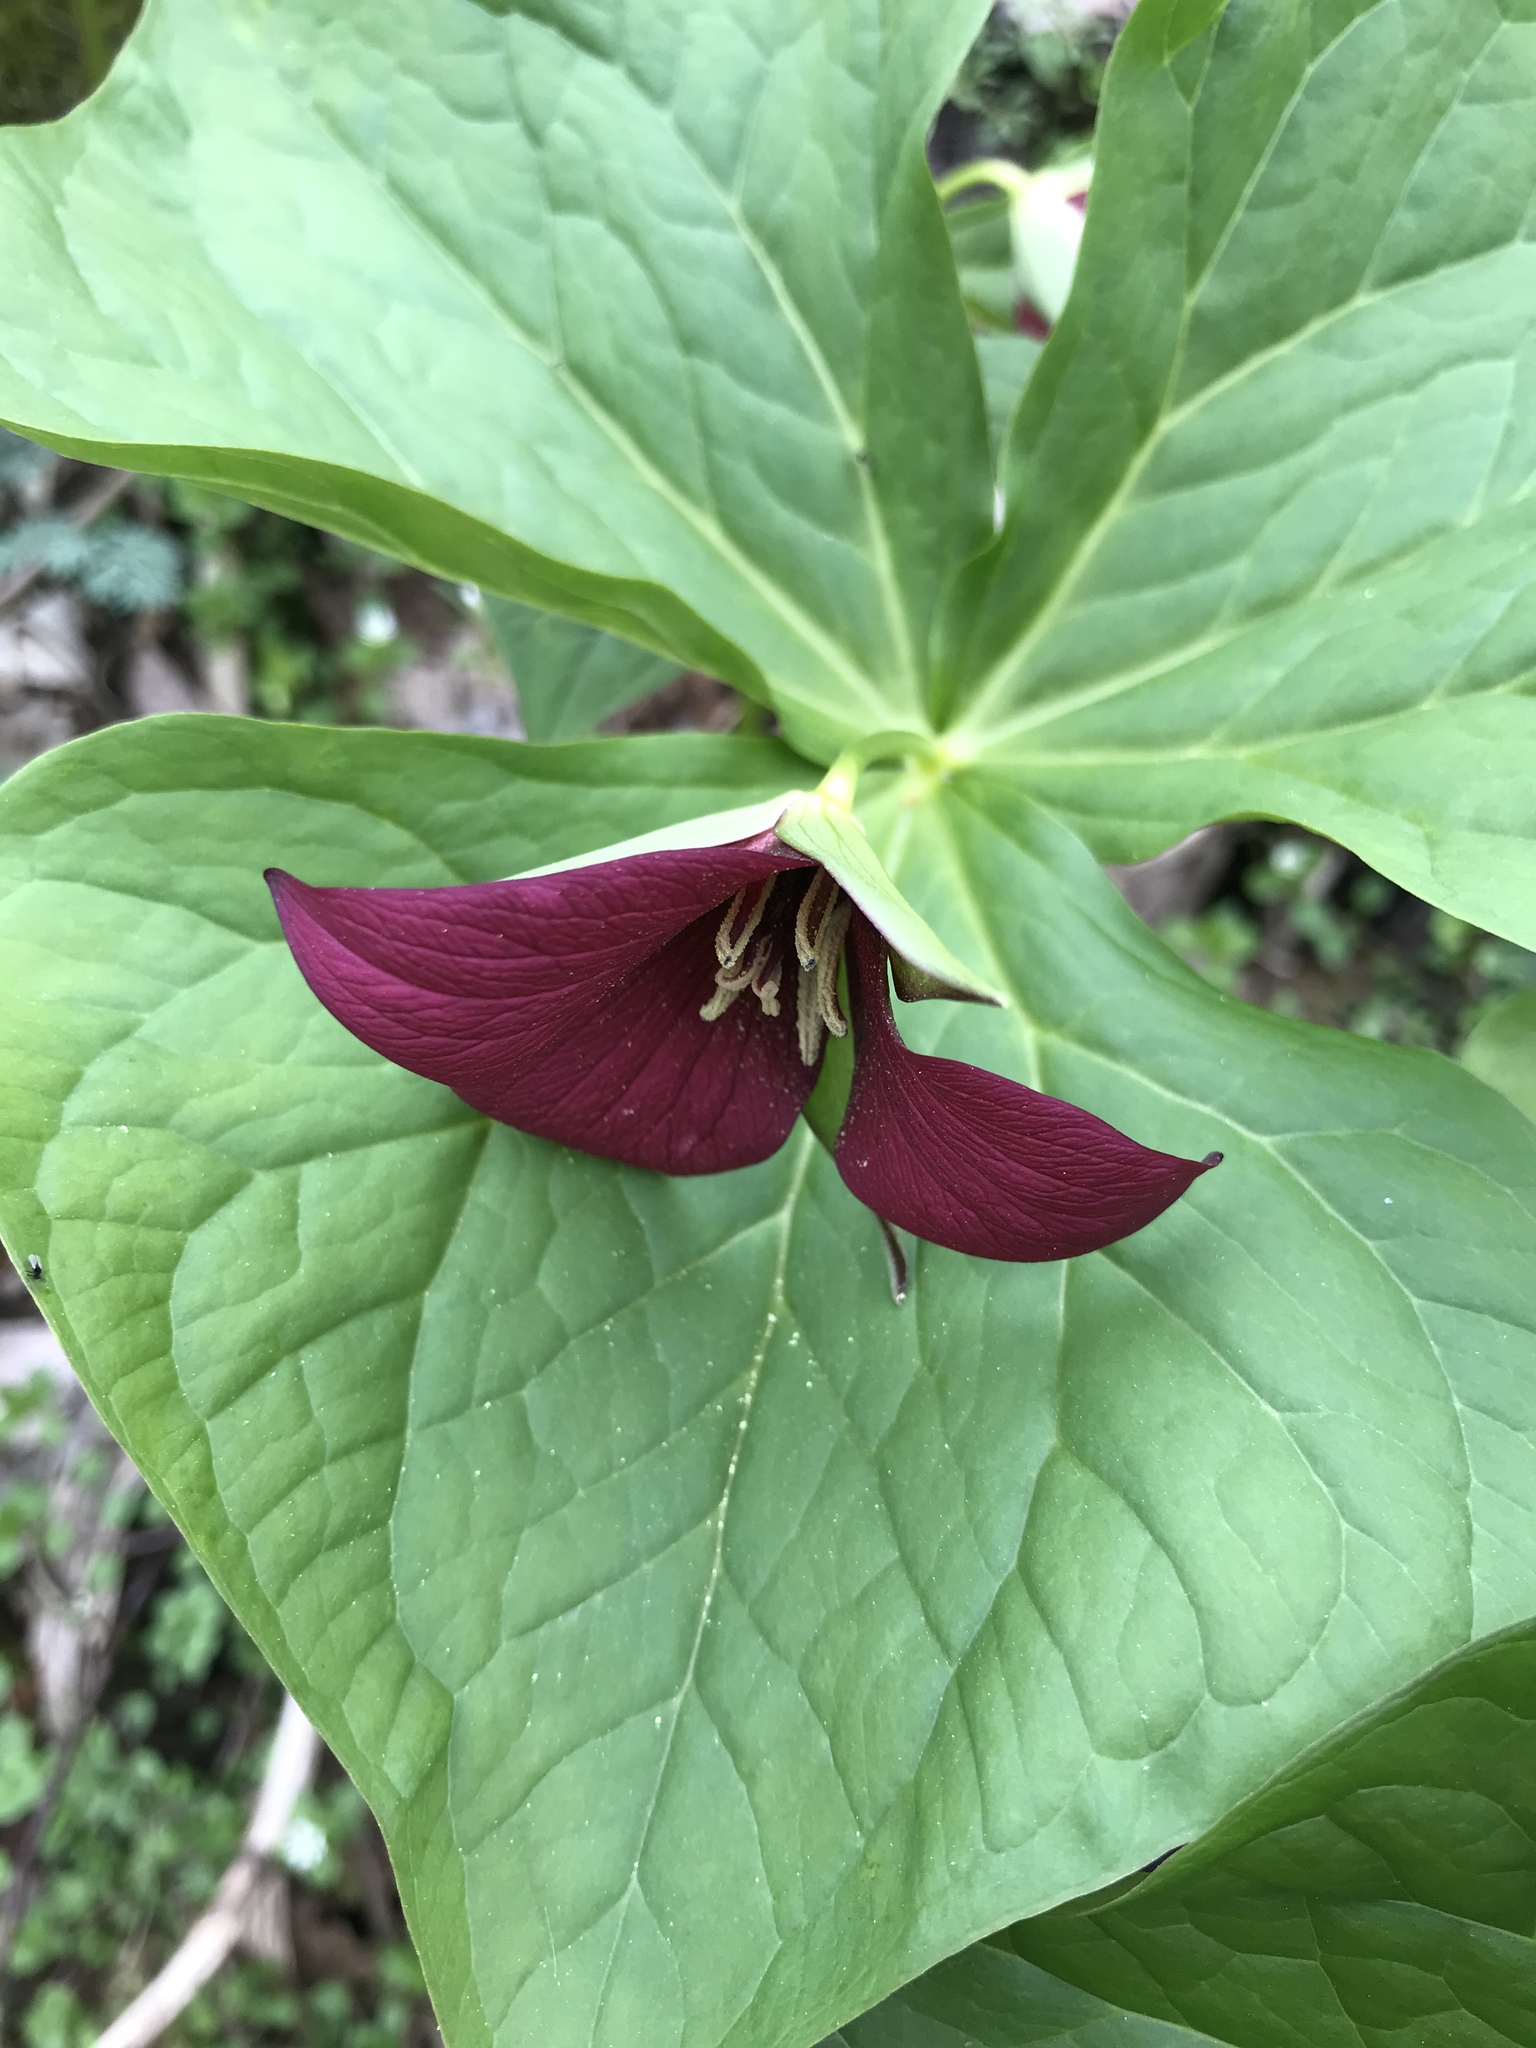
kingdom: Plantae
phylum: Tracheophyta
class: Liliopsida
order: Liliales
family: Melanthiaceae
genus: Trillium
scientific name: Trillium erectum
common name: Purple trillium
